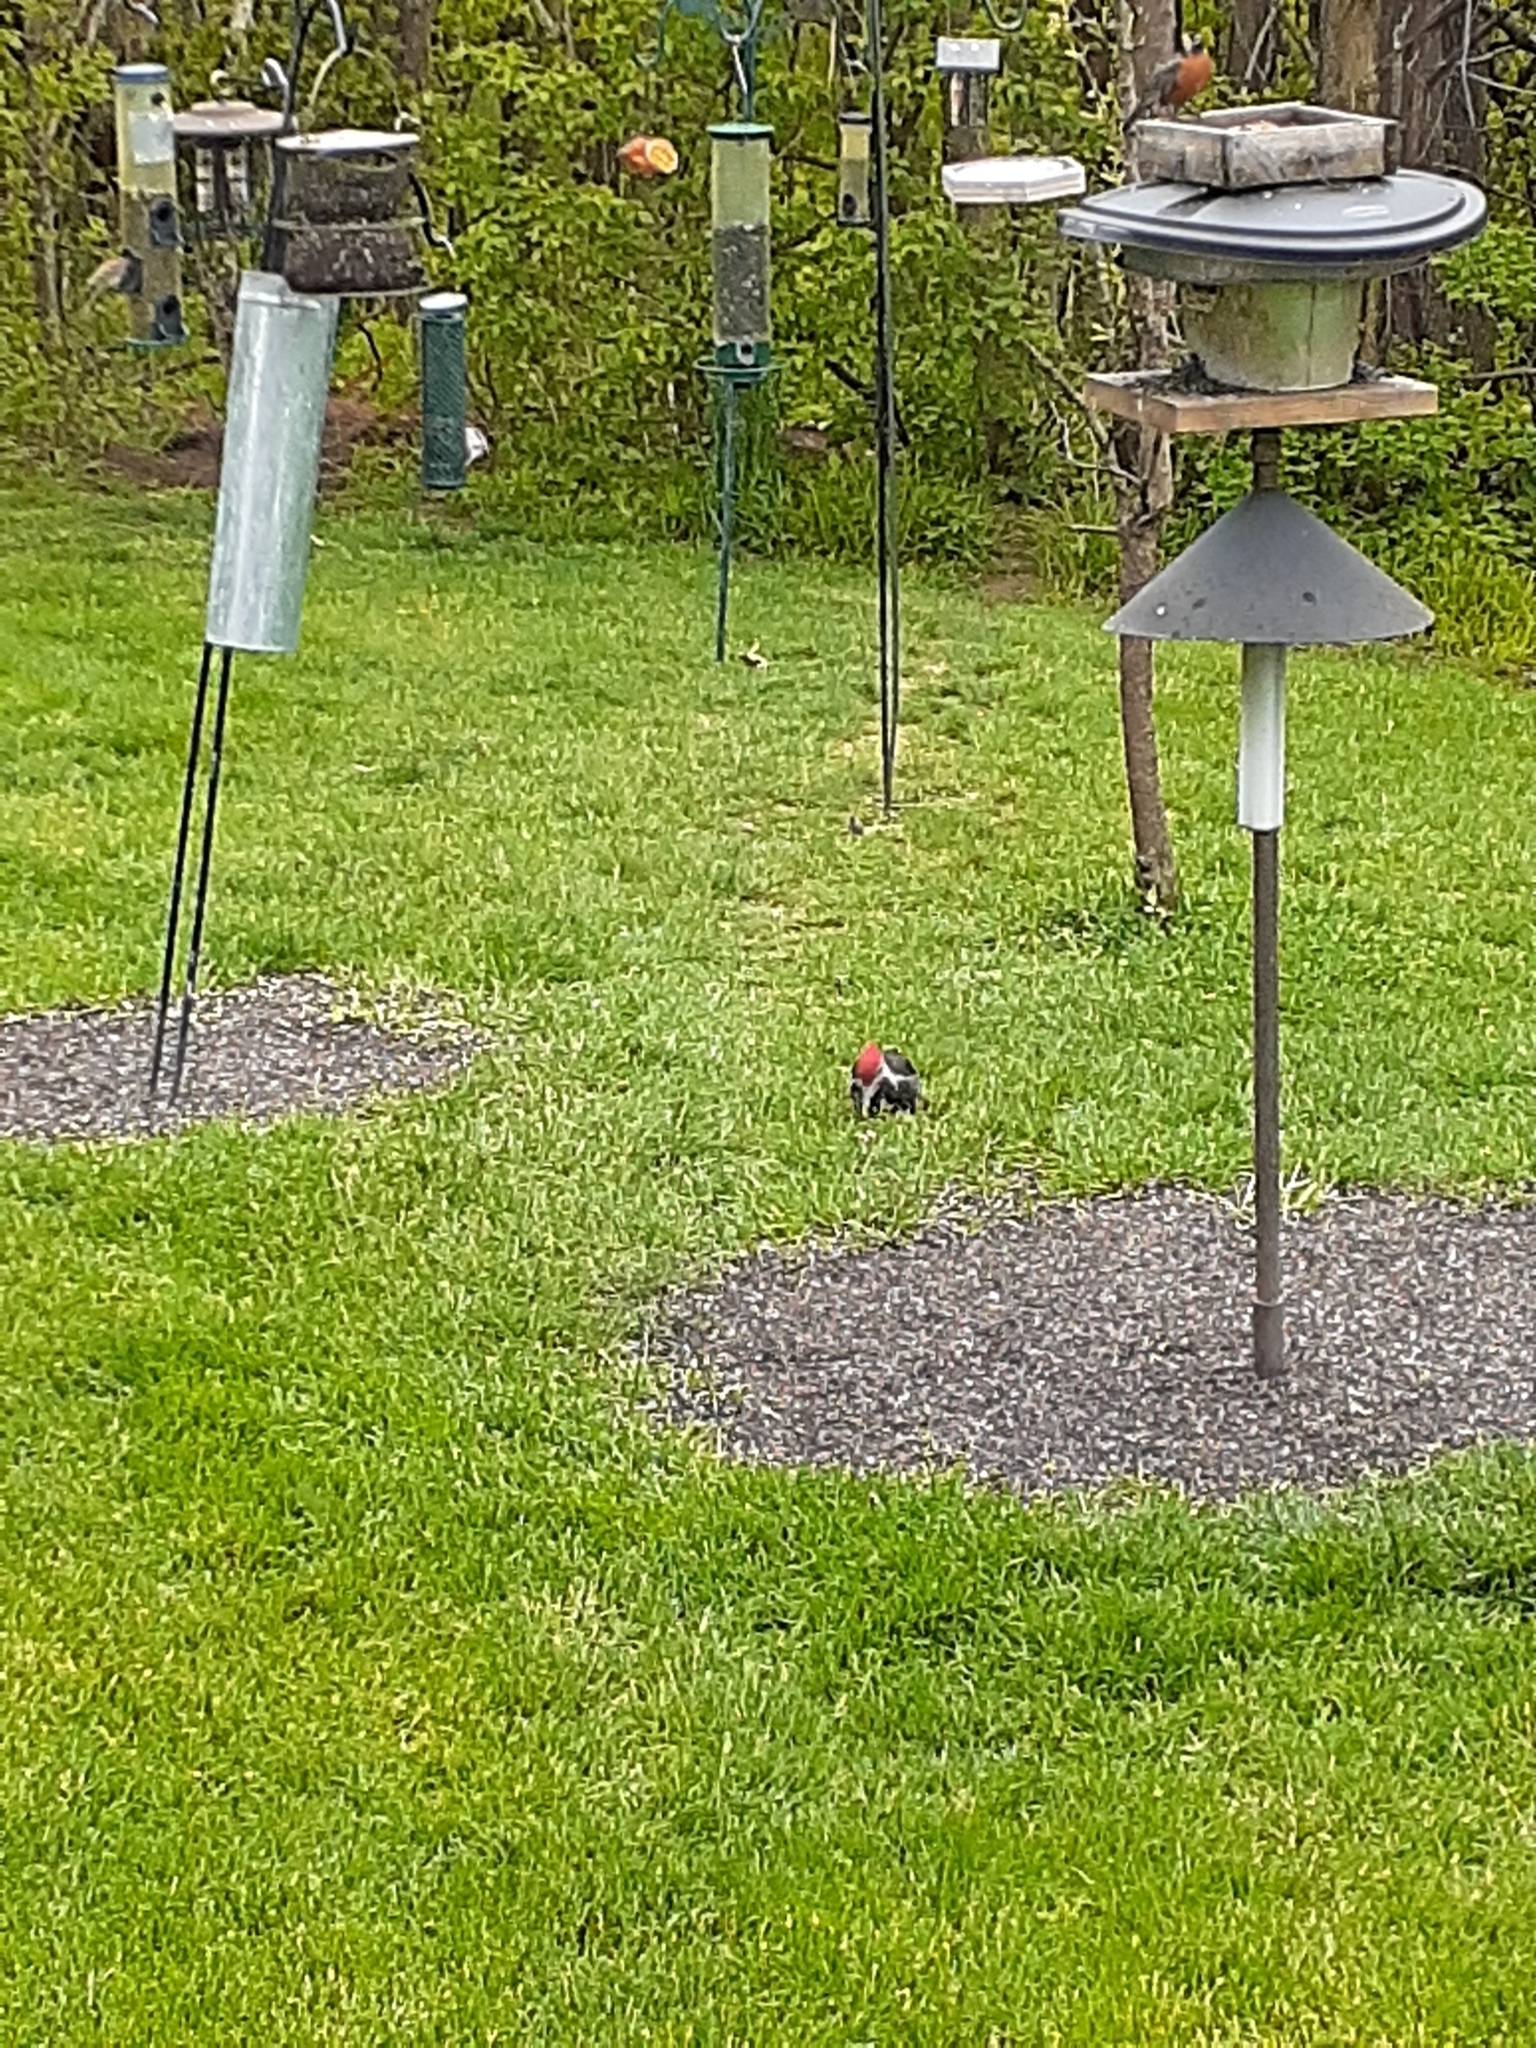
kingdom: Animalia
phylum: Chordata
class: Aves
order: Piciformes
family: Picidae
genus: Dryocopus
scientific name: Dryocopus pileatus
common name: Pileated woodpecker
